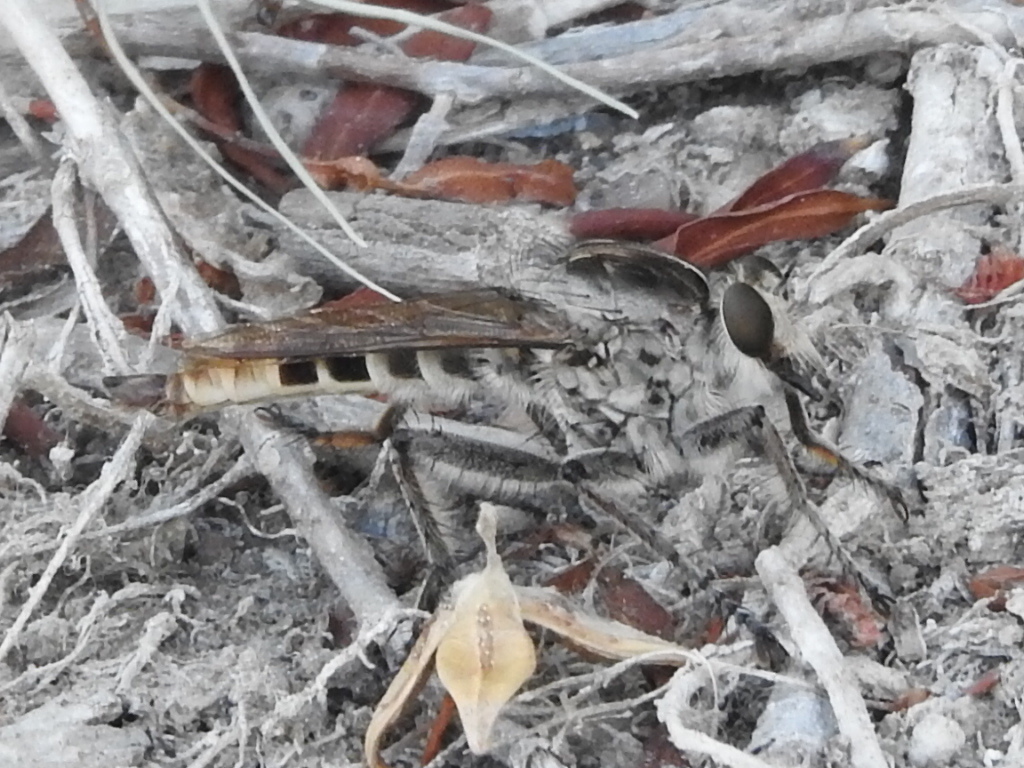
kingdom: Animalia
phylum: Arthropoda
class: Insecta
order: Diptera
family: Asilidae
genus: Triorla
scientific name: Triorla interrupta
